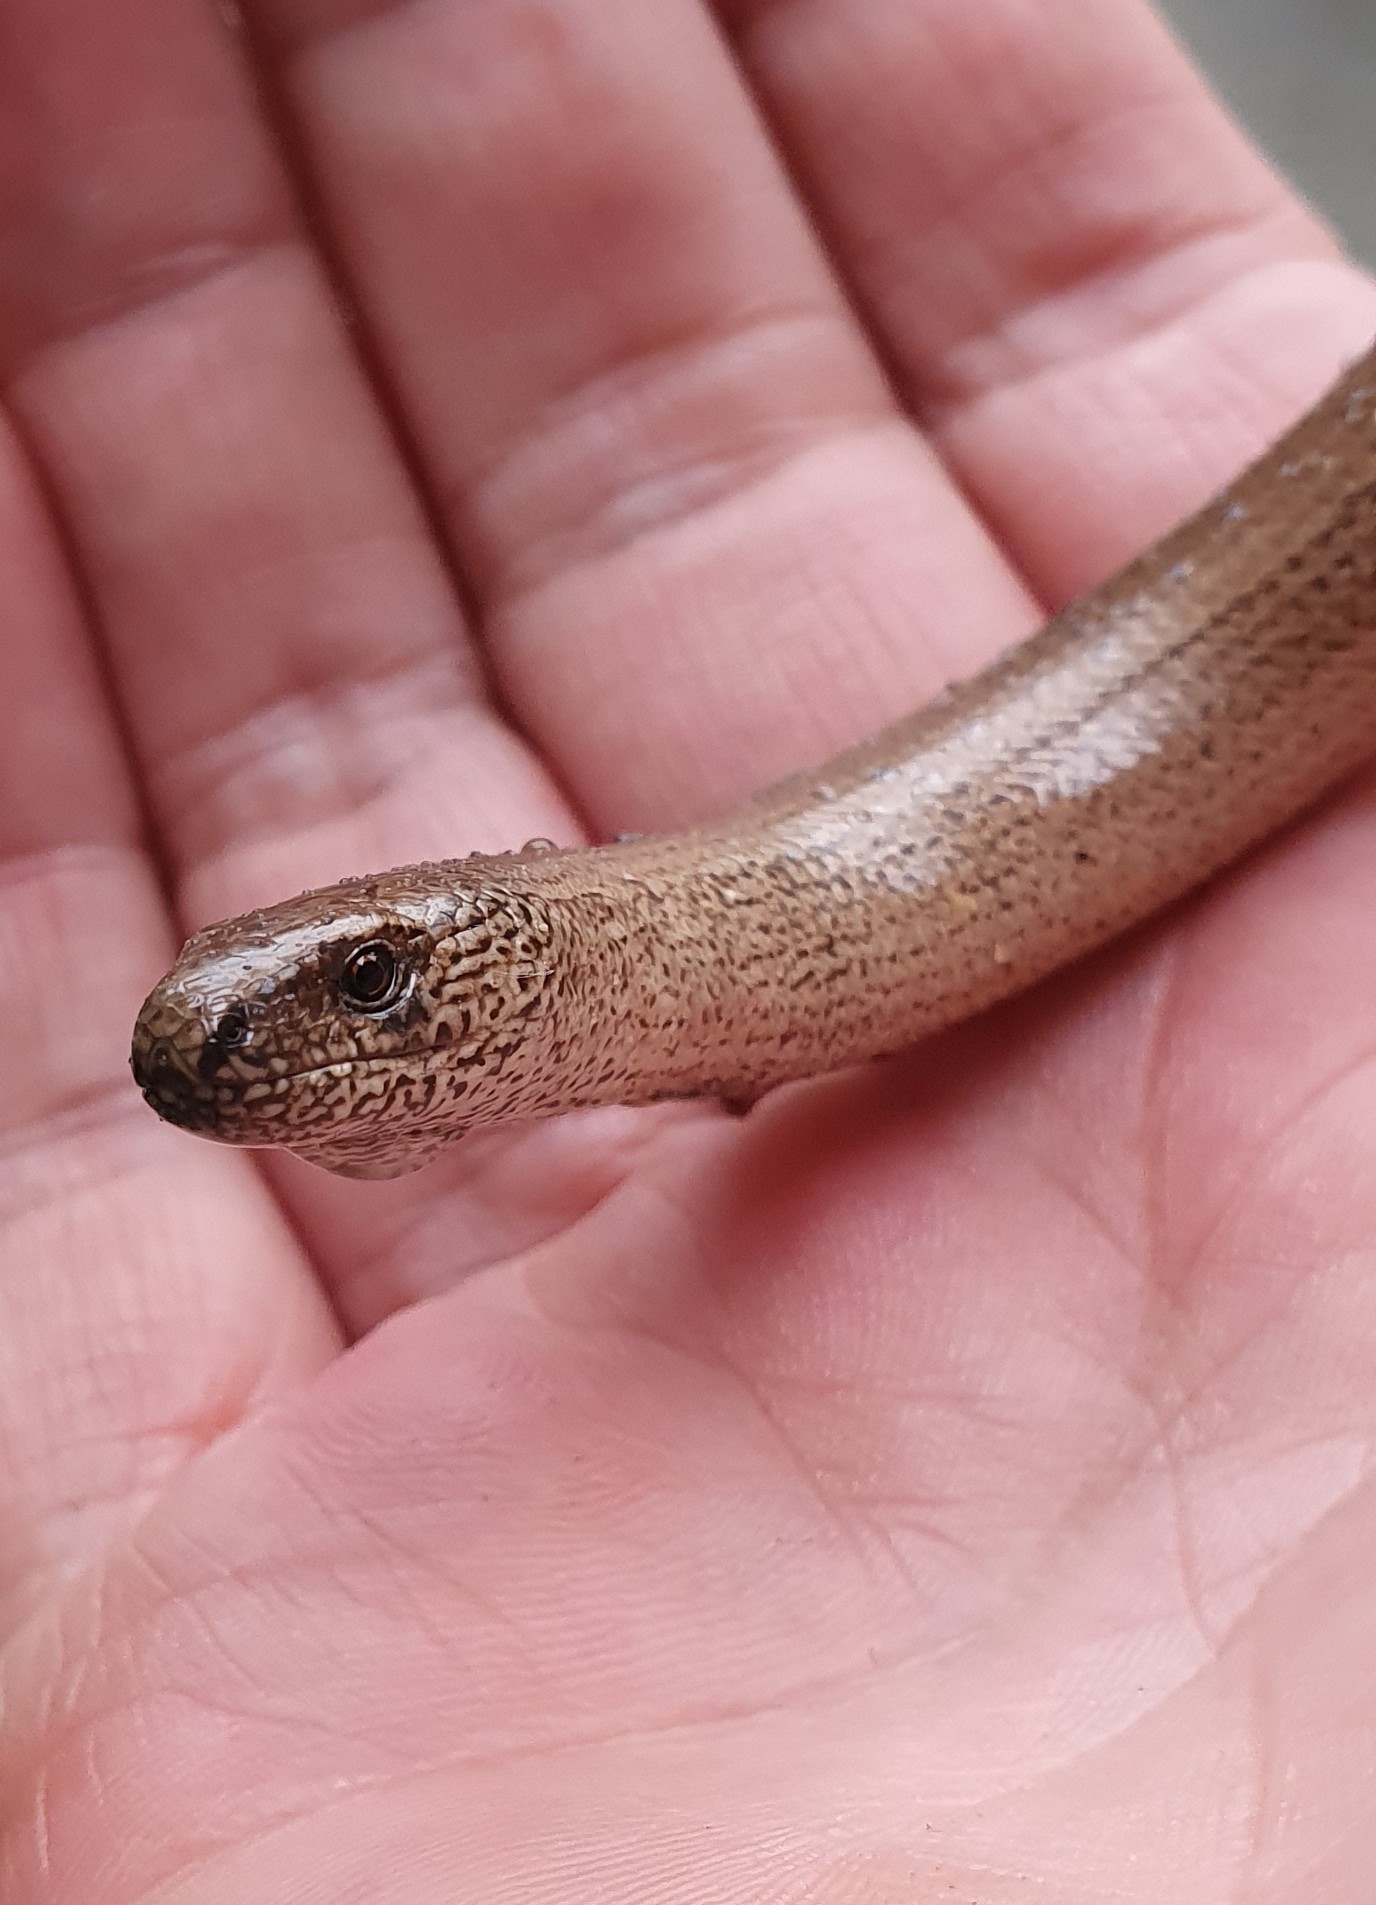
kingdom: Animalia
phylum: Chordata
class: Squamata
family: Anguidae
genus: Anguis
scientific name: Anguis fragilis
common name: Slow worm
